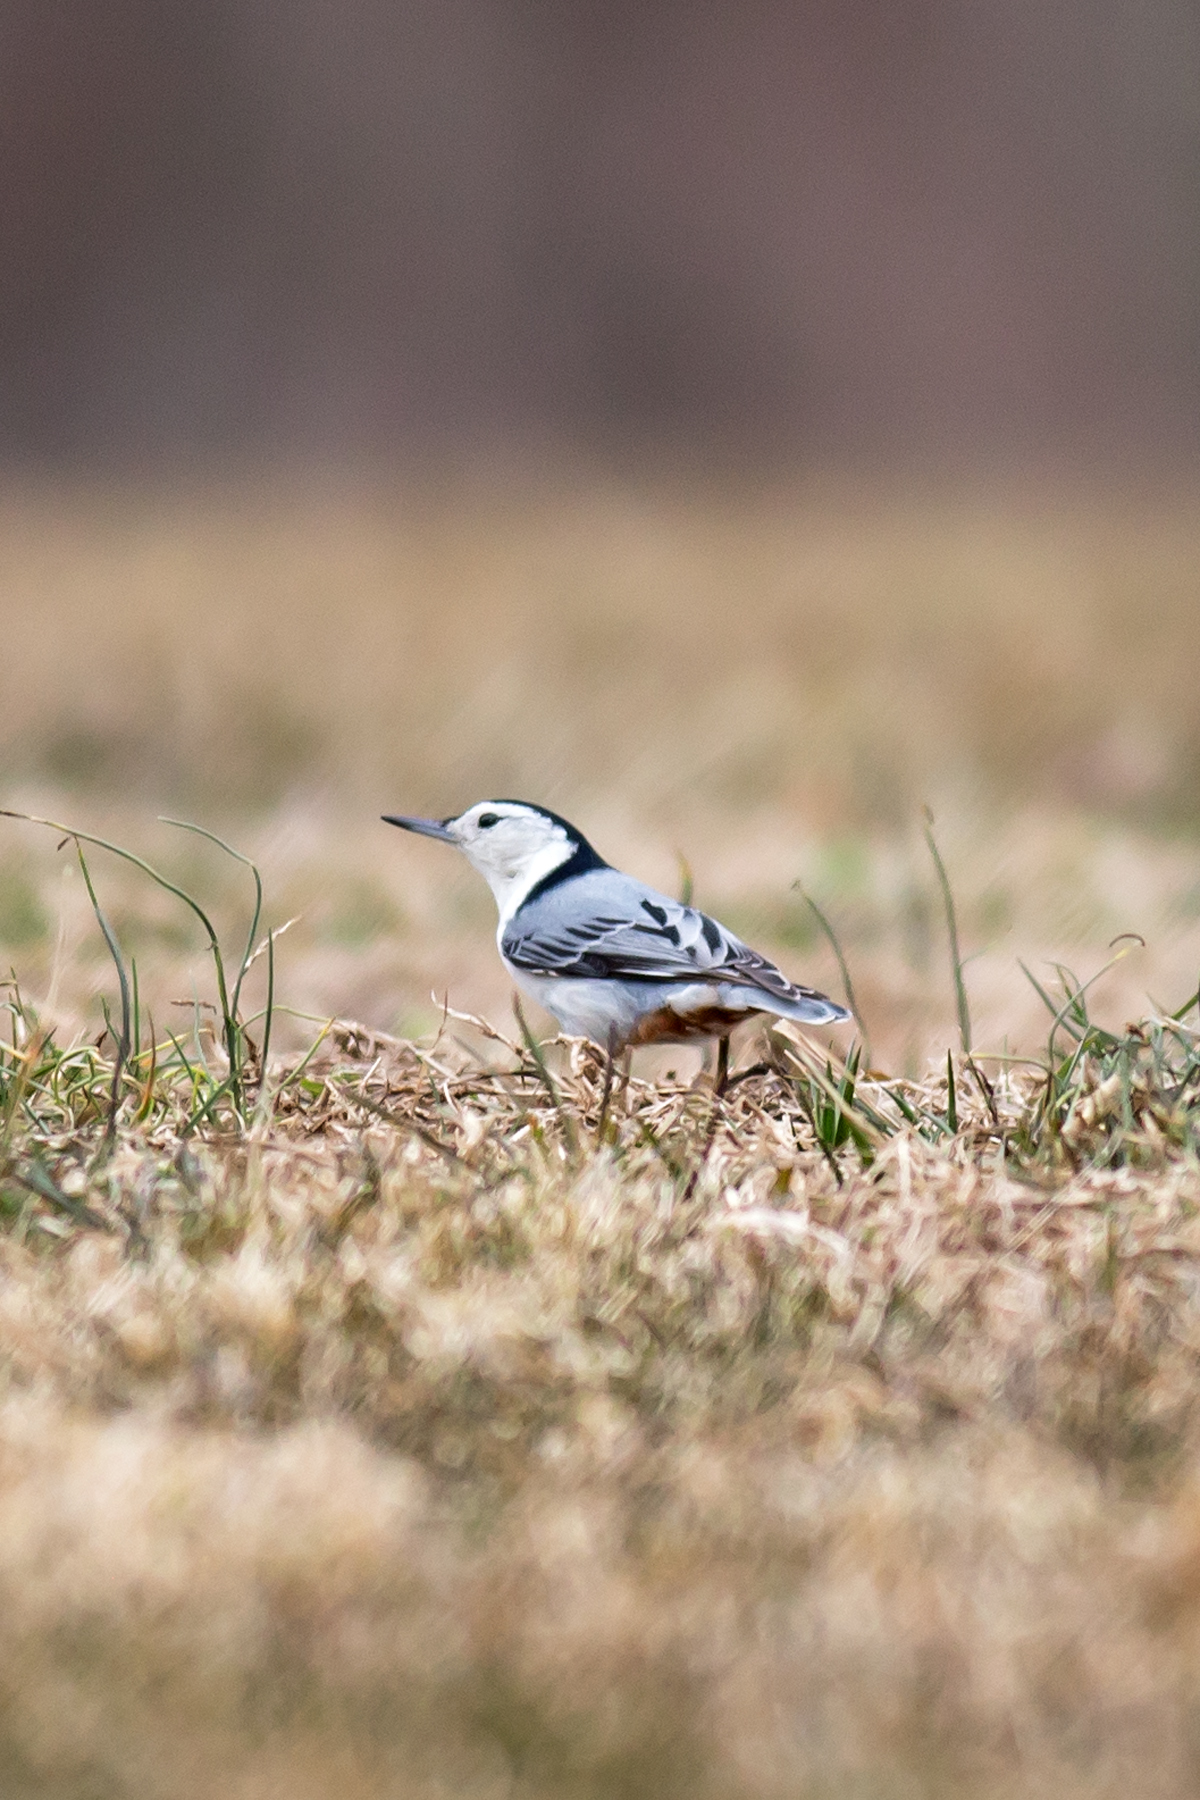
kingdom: Animalia
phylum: Chordata
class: Aves
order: Passeriformes
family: Sittidae
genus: Sitta
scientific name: Sitta carolinensis
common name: White-breasted nuthatch
